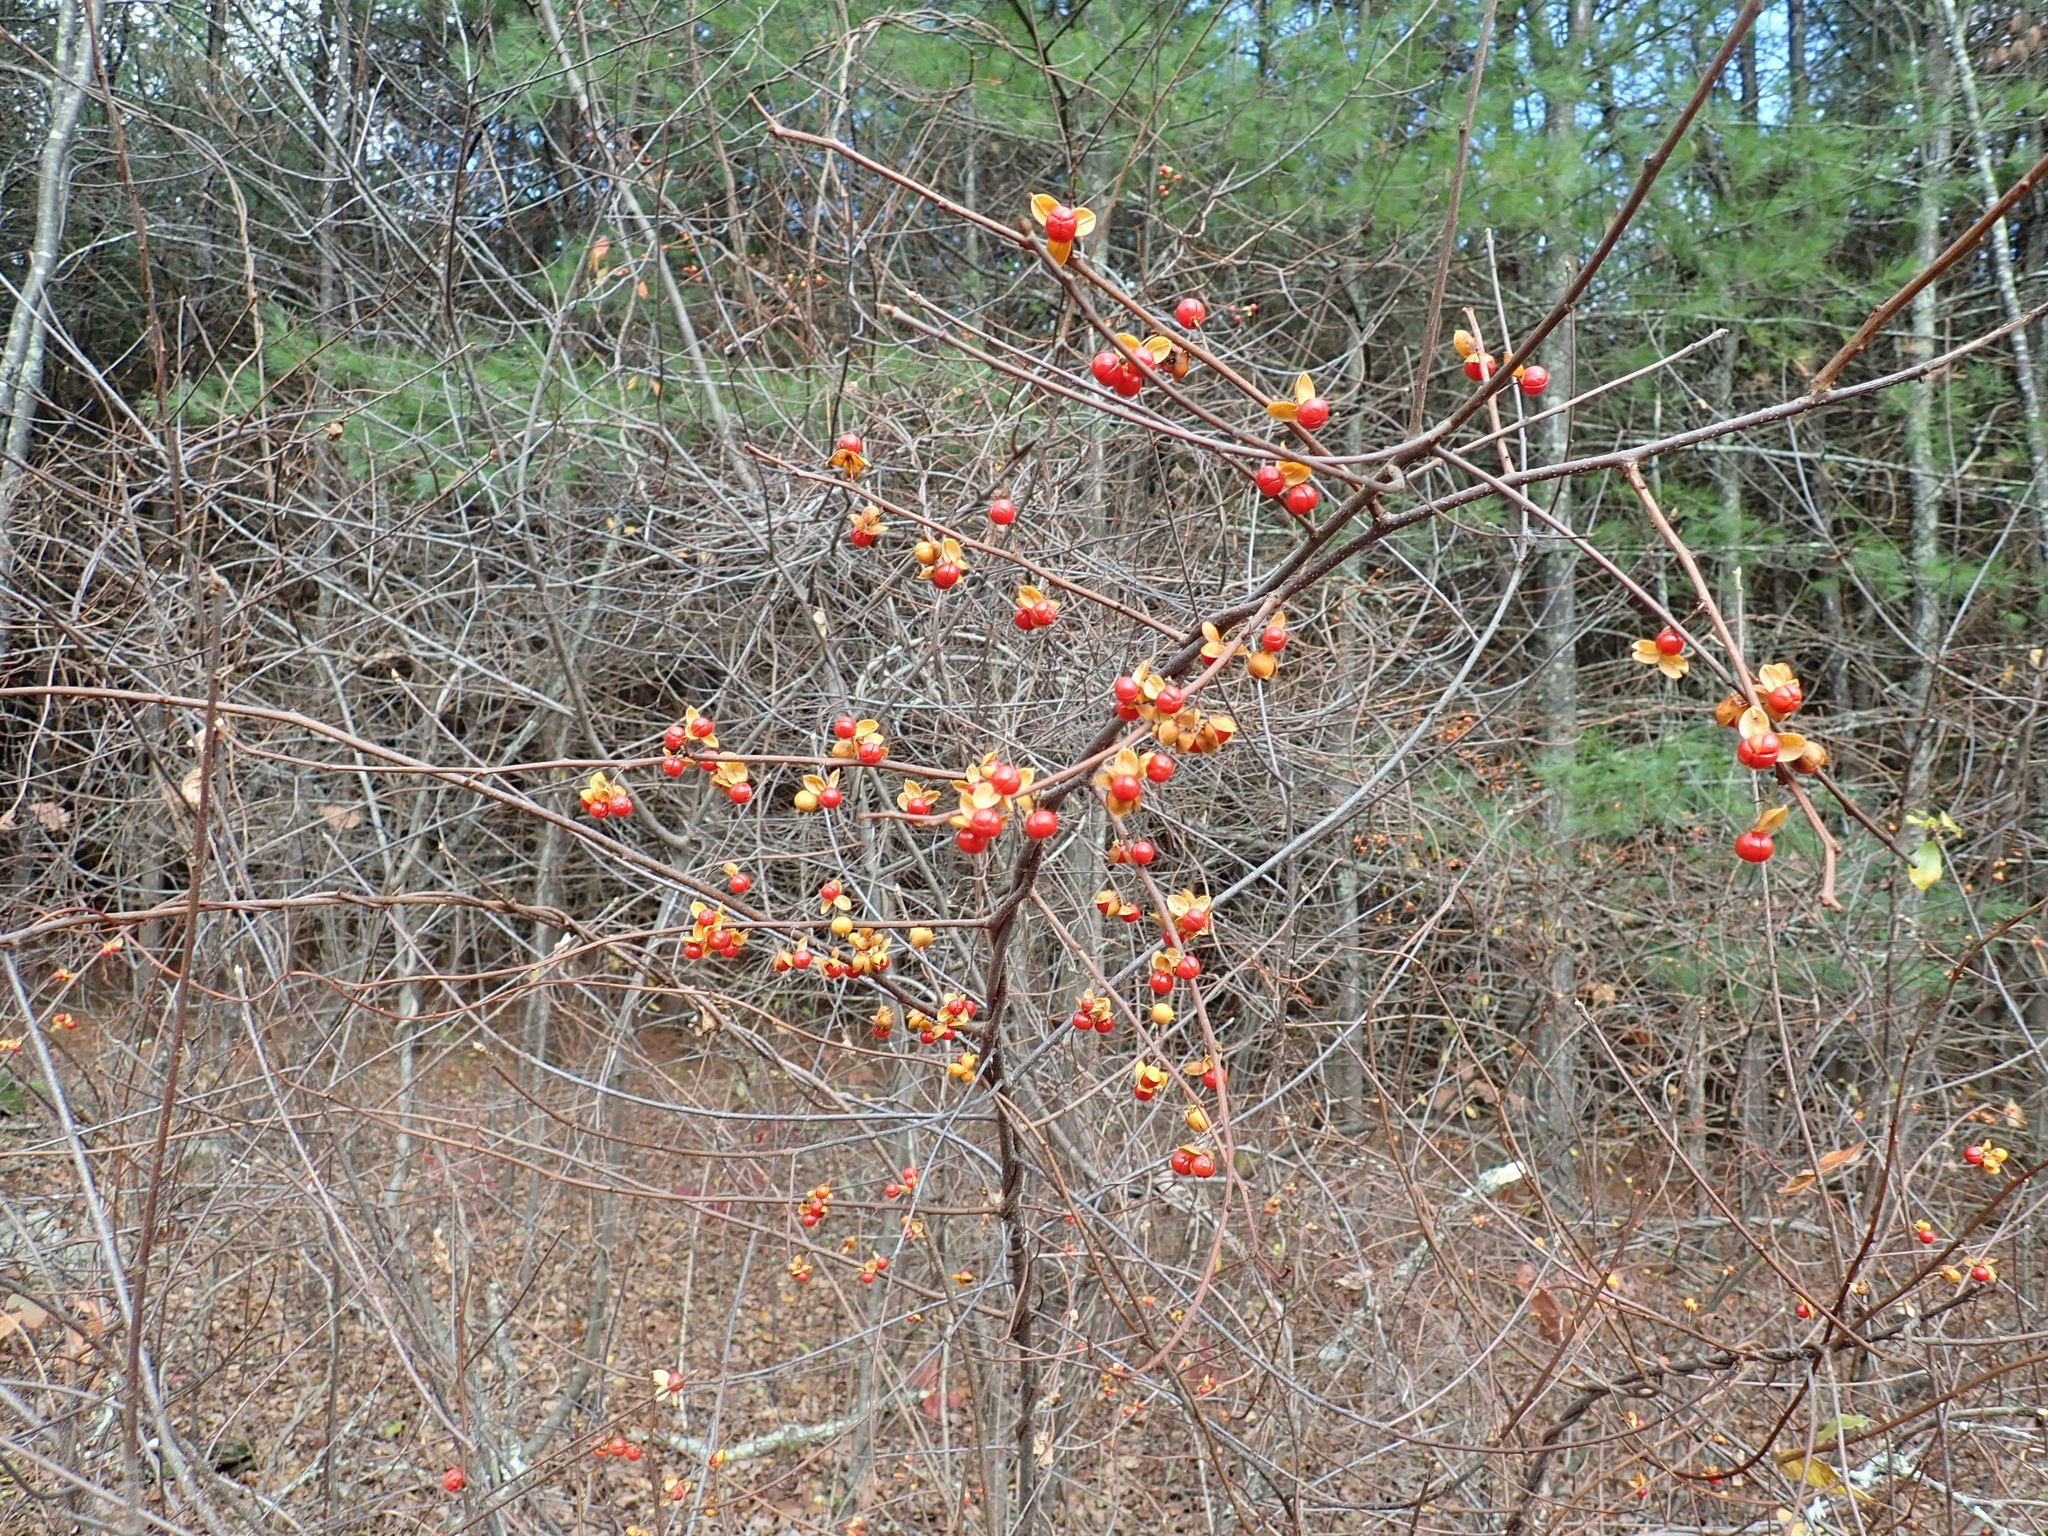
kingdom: Plantae
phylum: Tracheophyta
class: Magnoliopsida
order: Celastrales
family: Celastraceae
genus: Celastrus
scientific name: Celastrus orbiculatus
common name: Oriental bittersweet
